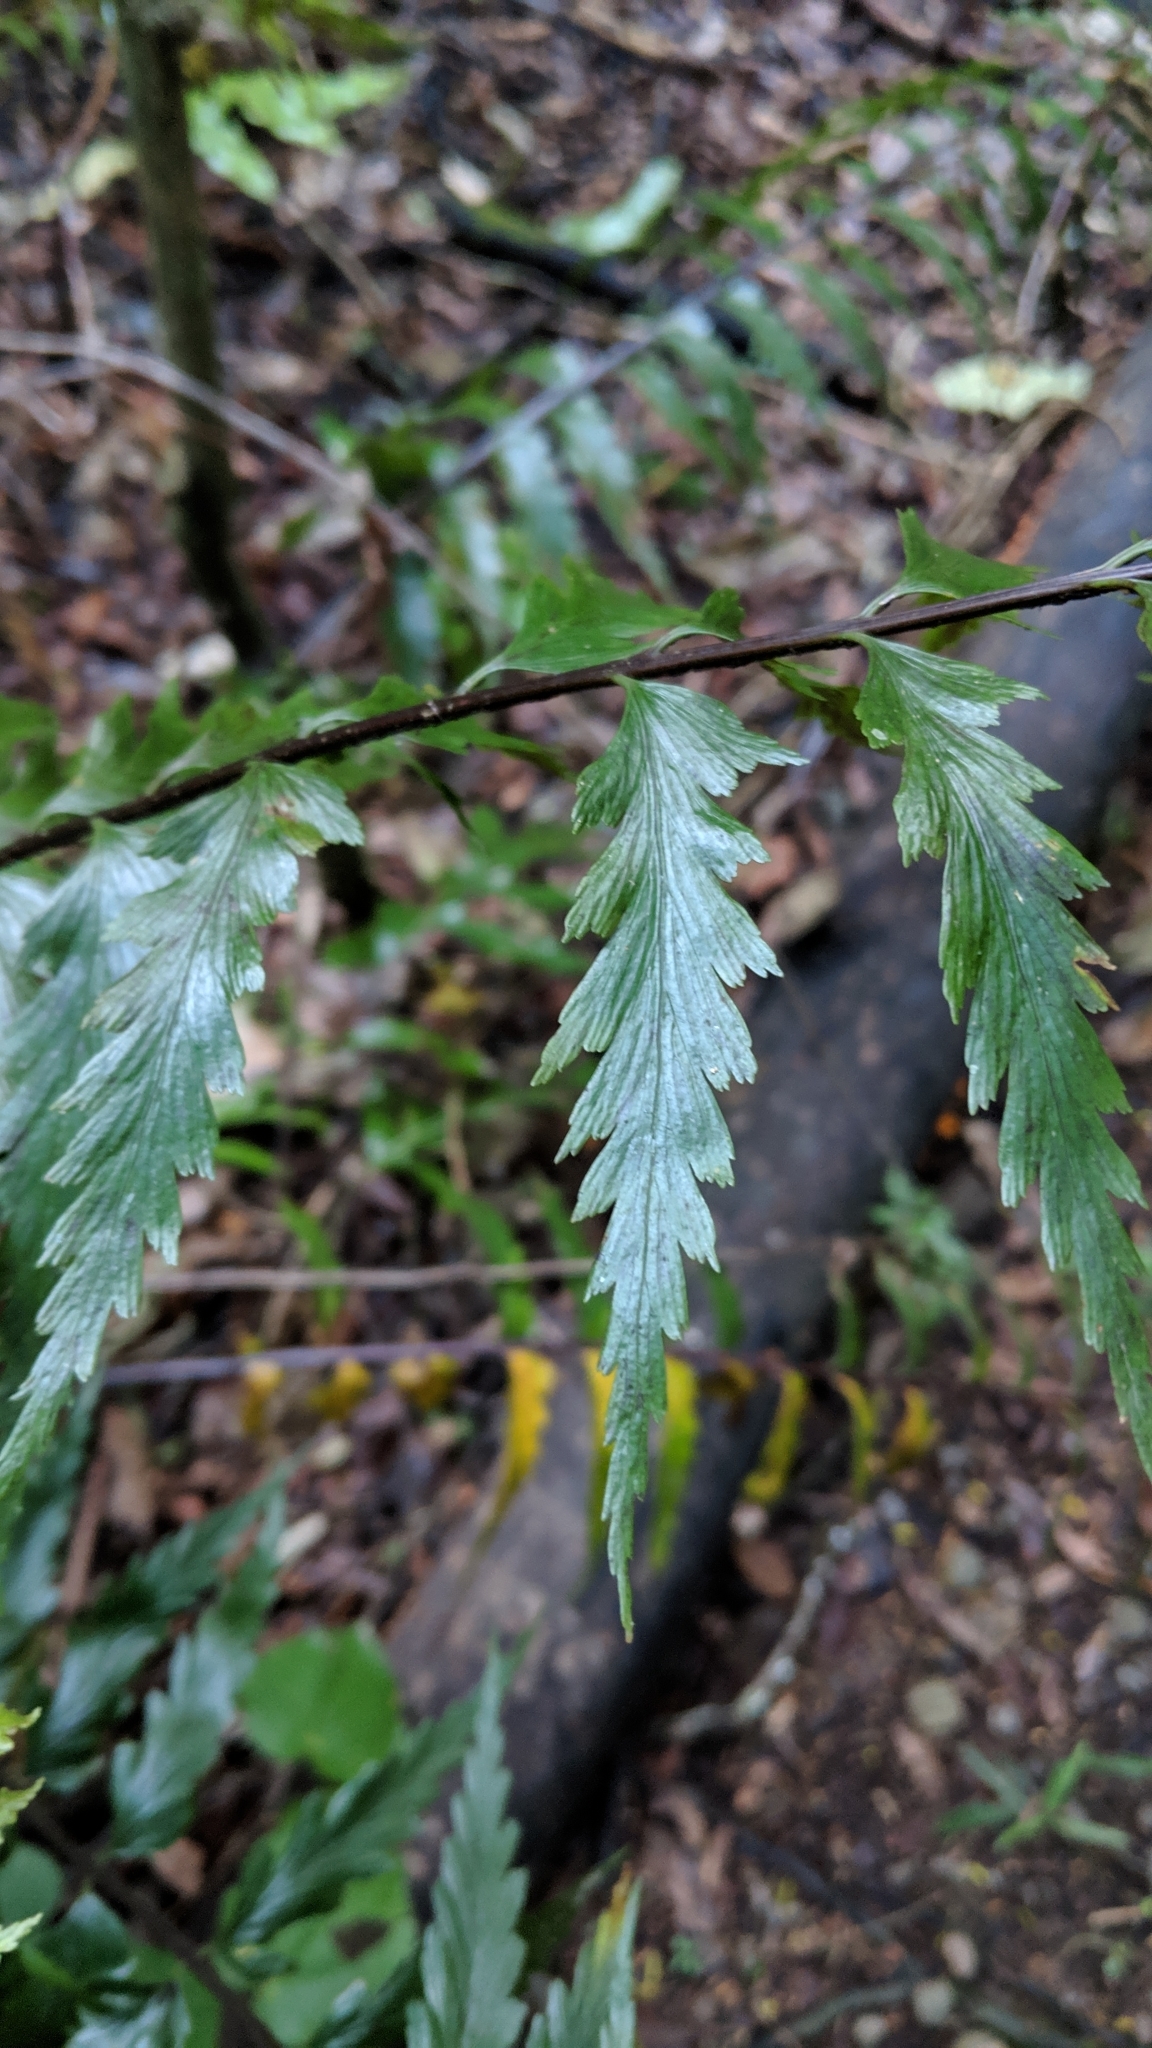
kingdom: Plantae
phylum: Tracheophyta
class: Polypodiopsida
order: Polypodiales
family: Aspleniaceae
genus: Asplenium
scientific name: Asplenium polyodon
